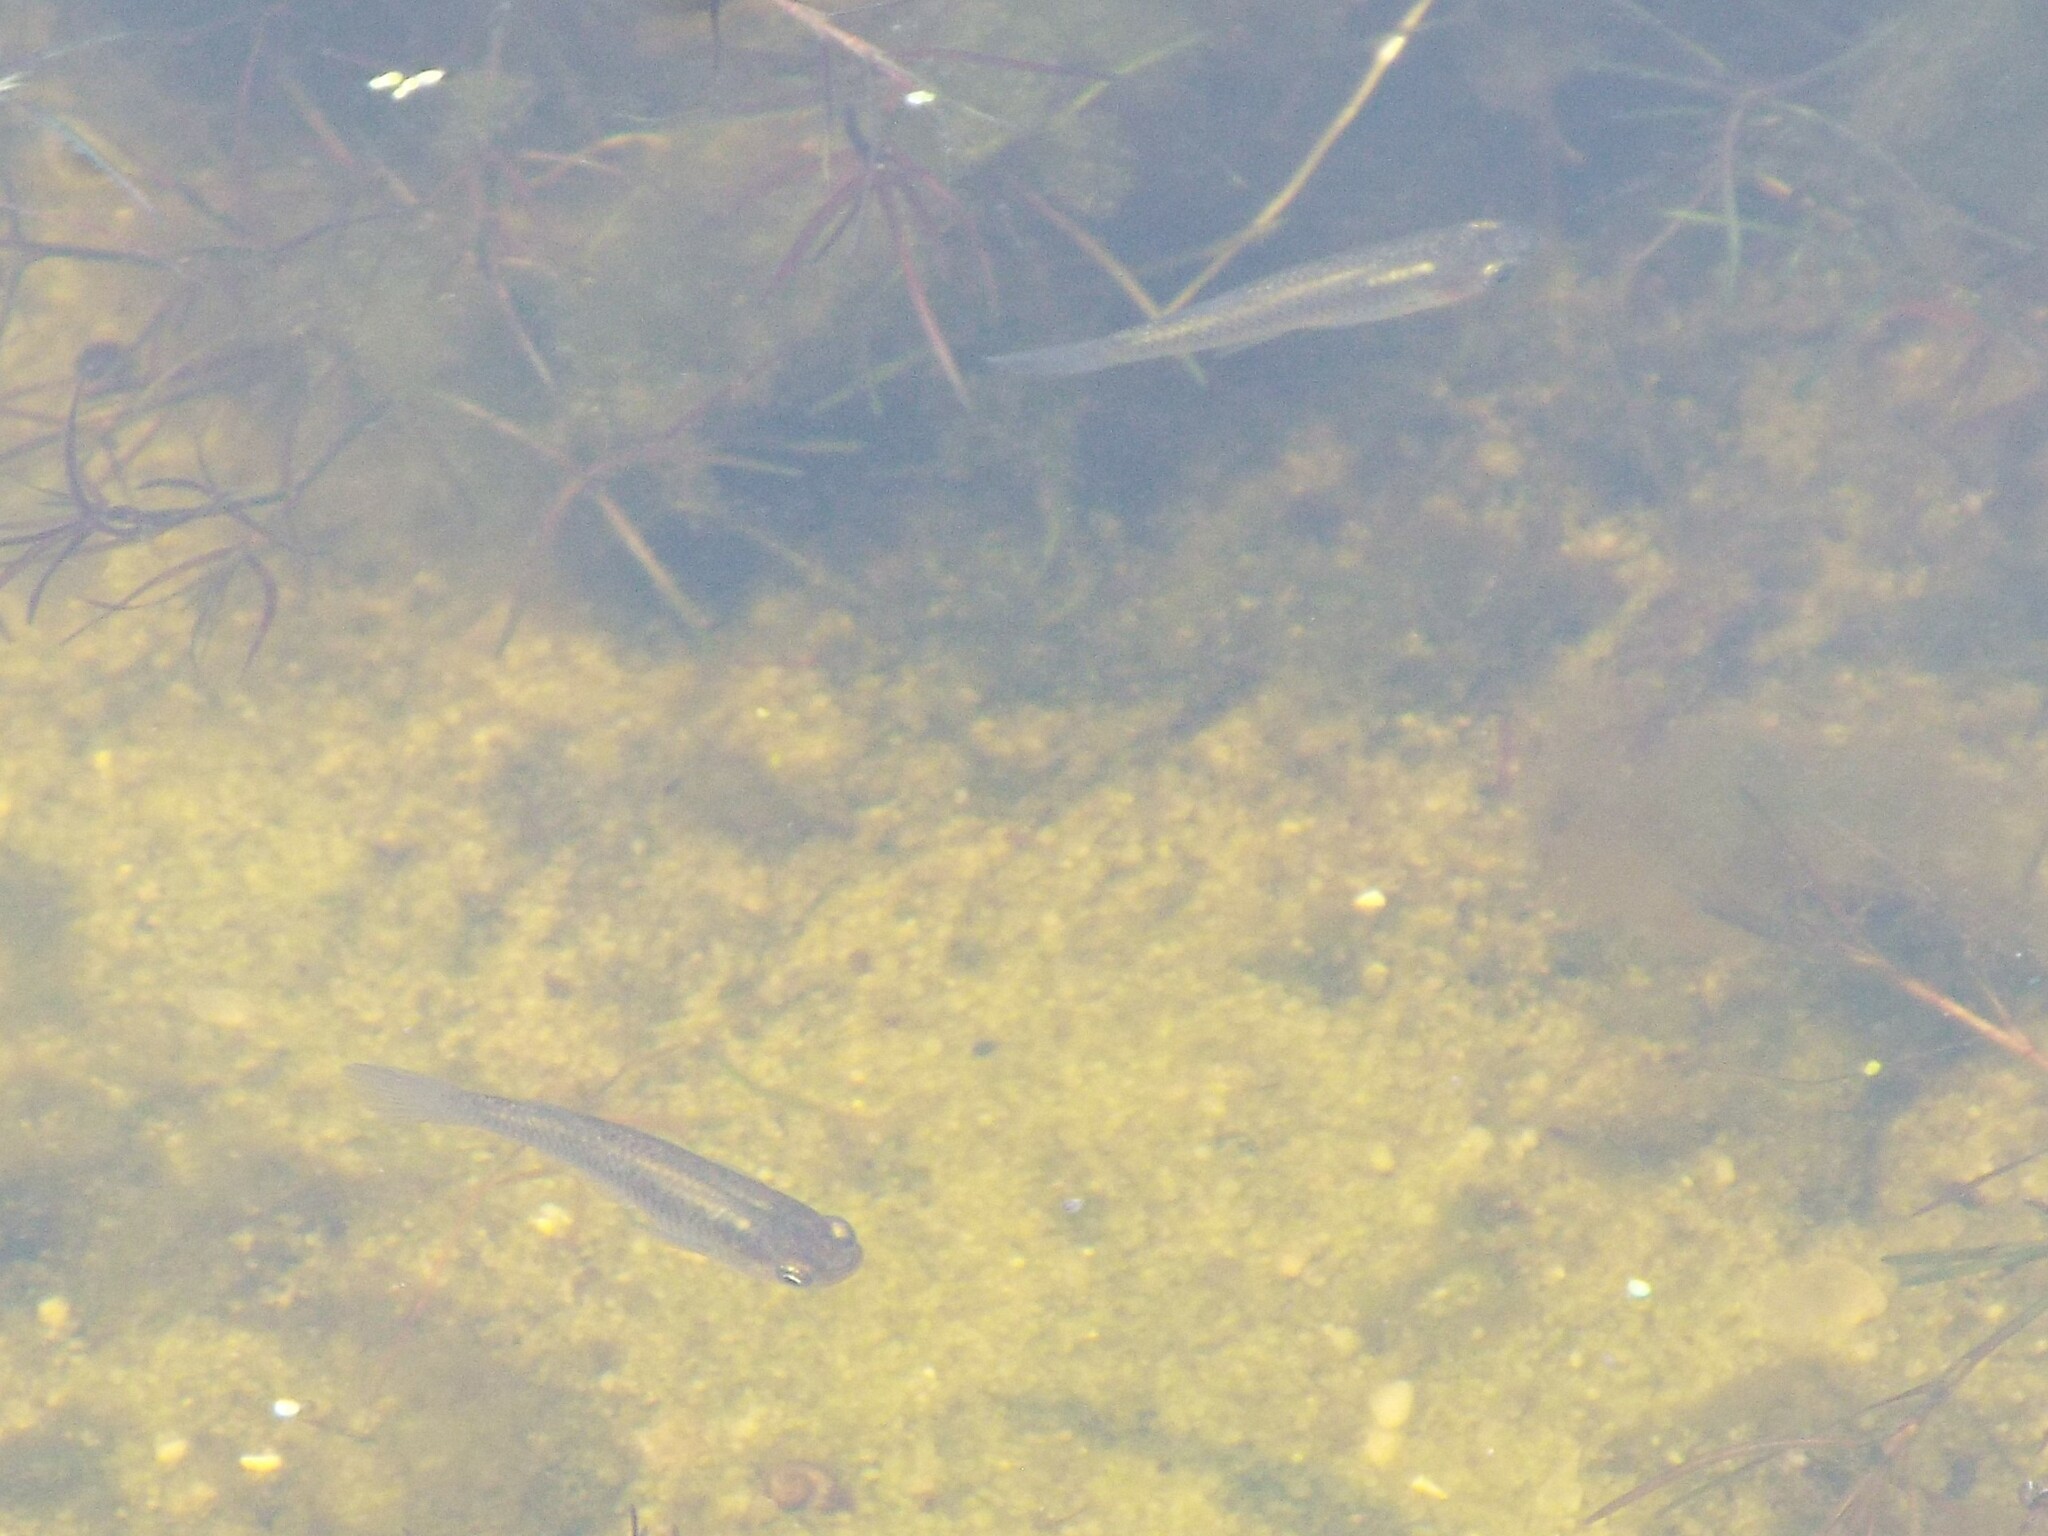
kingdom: Animalia
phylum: Chordata
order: Cyprinodontiformes
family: Poeciliidae
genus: Gambusia
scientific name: Gambusia holbrooki
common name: Eastern mosquitofish
